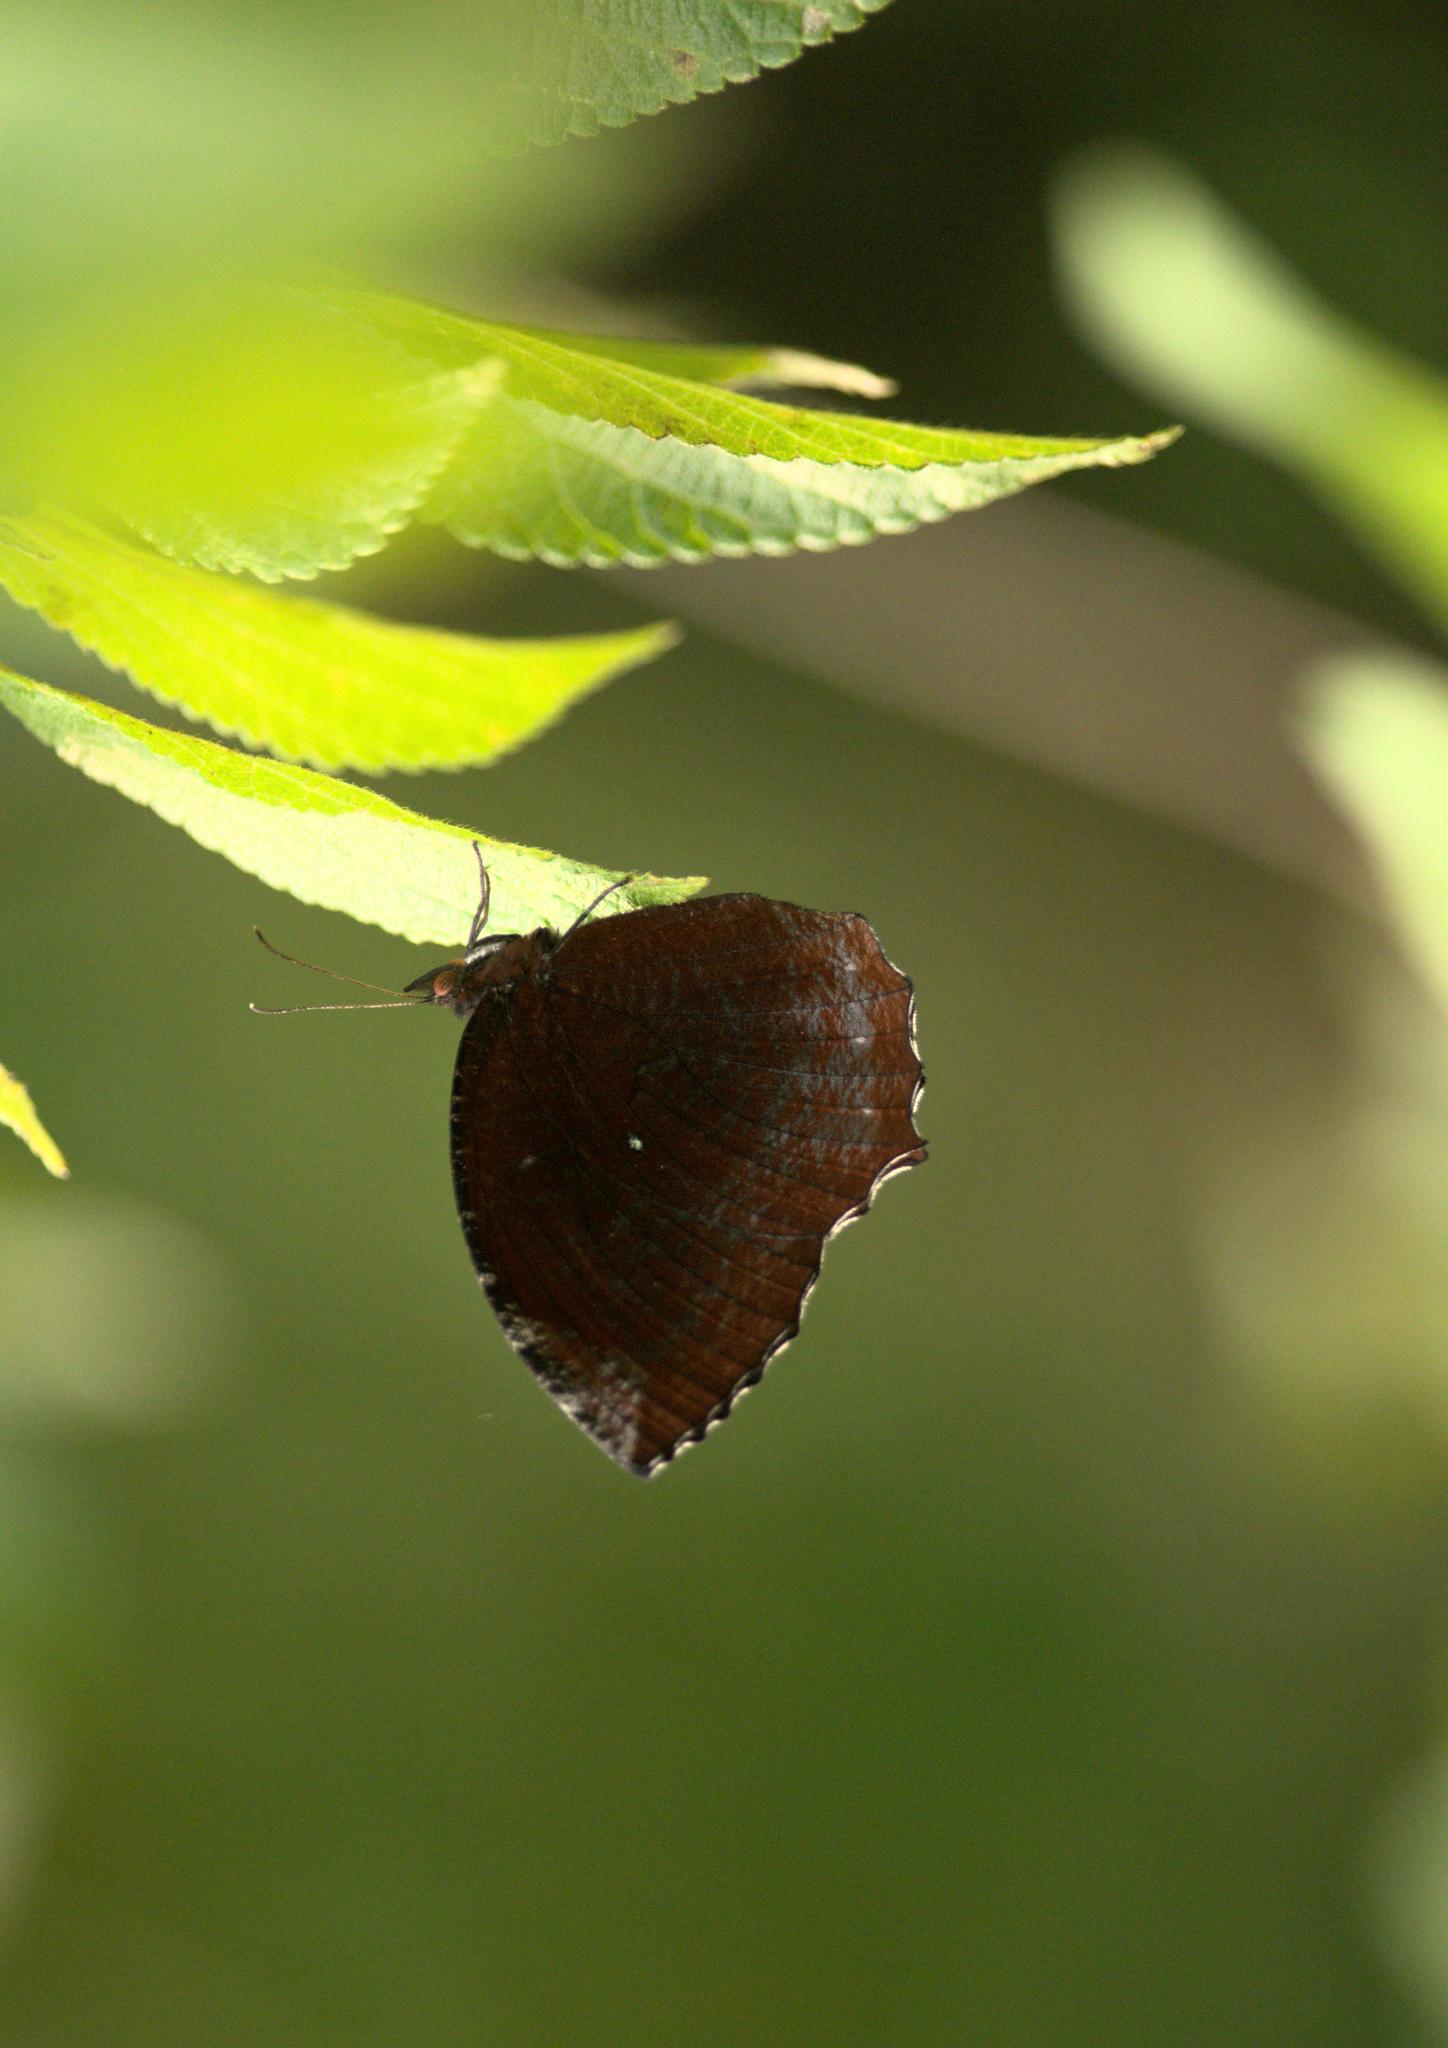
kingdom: Animalia
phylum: Arthropoda
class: Insecta
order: Lepidoptera
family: Nymphalidae
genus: Elymnias
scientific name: Elymnias hypermnestra
